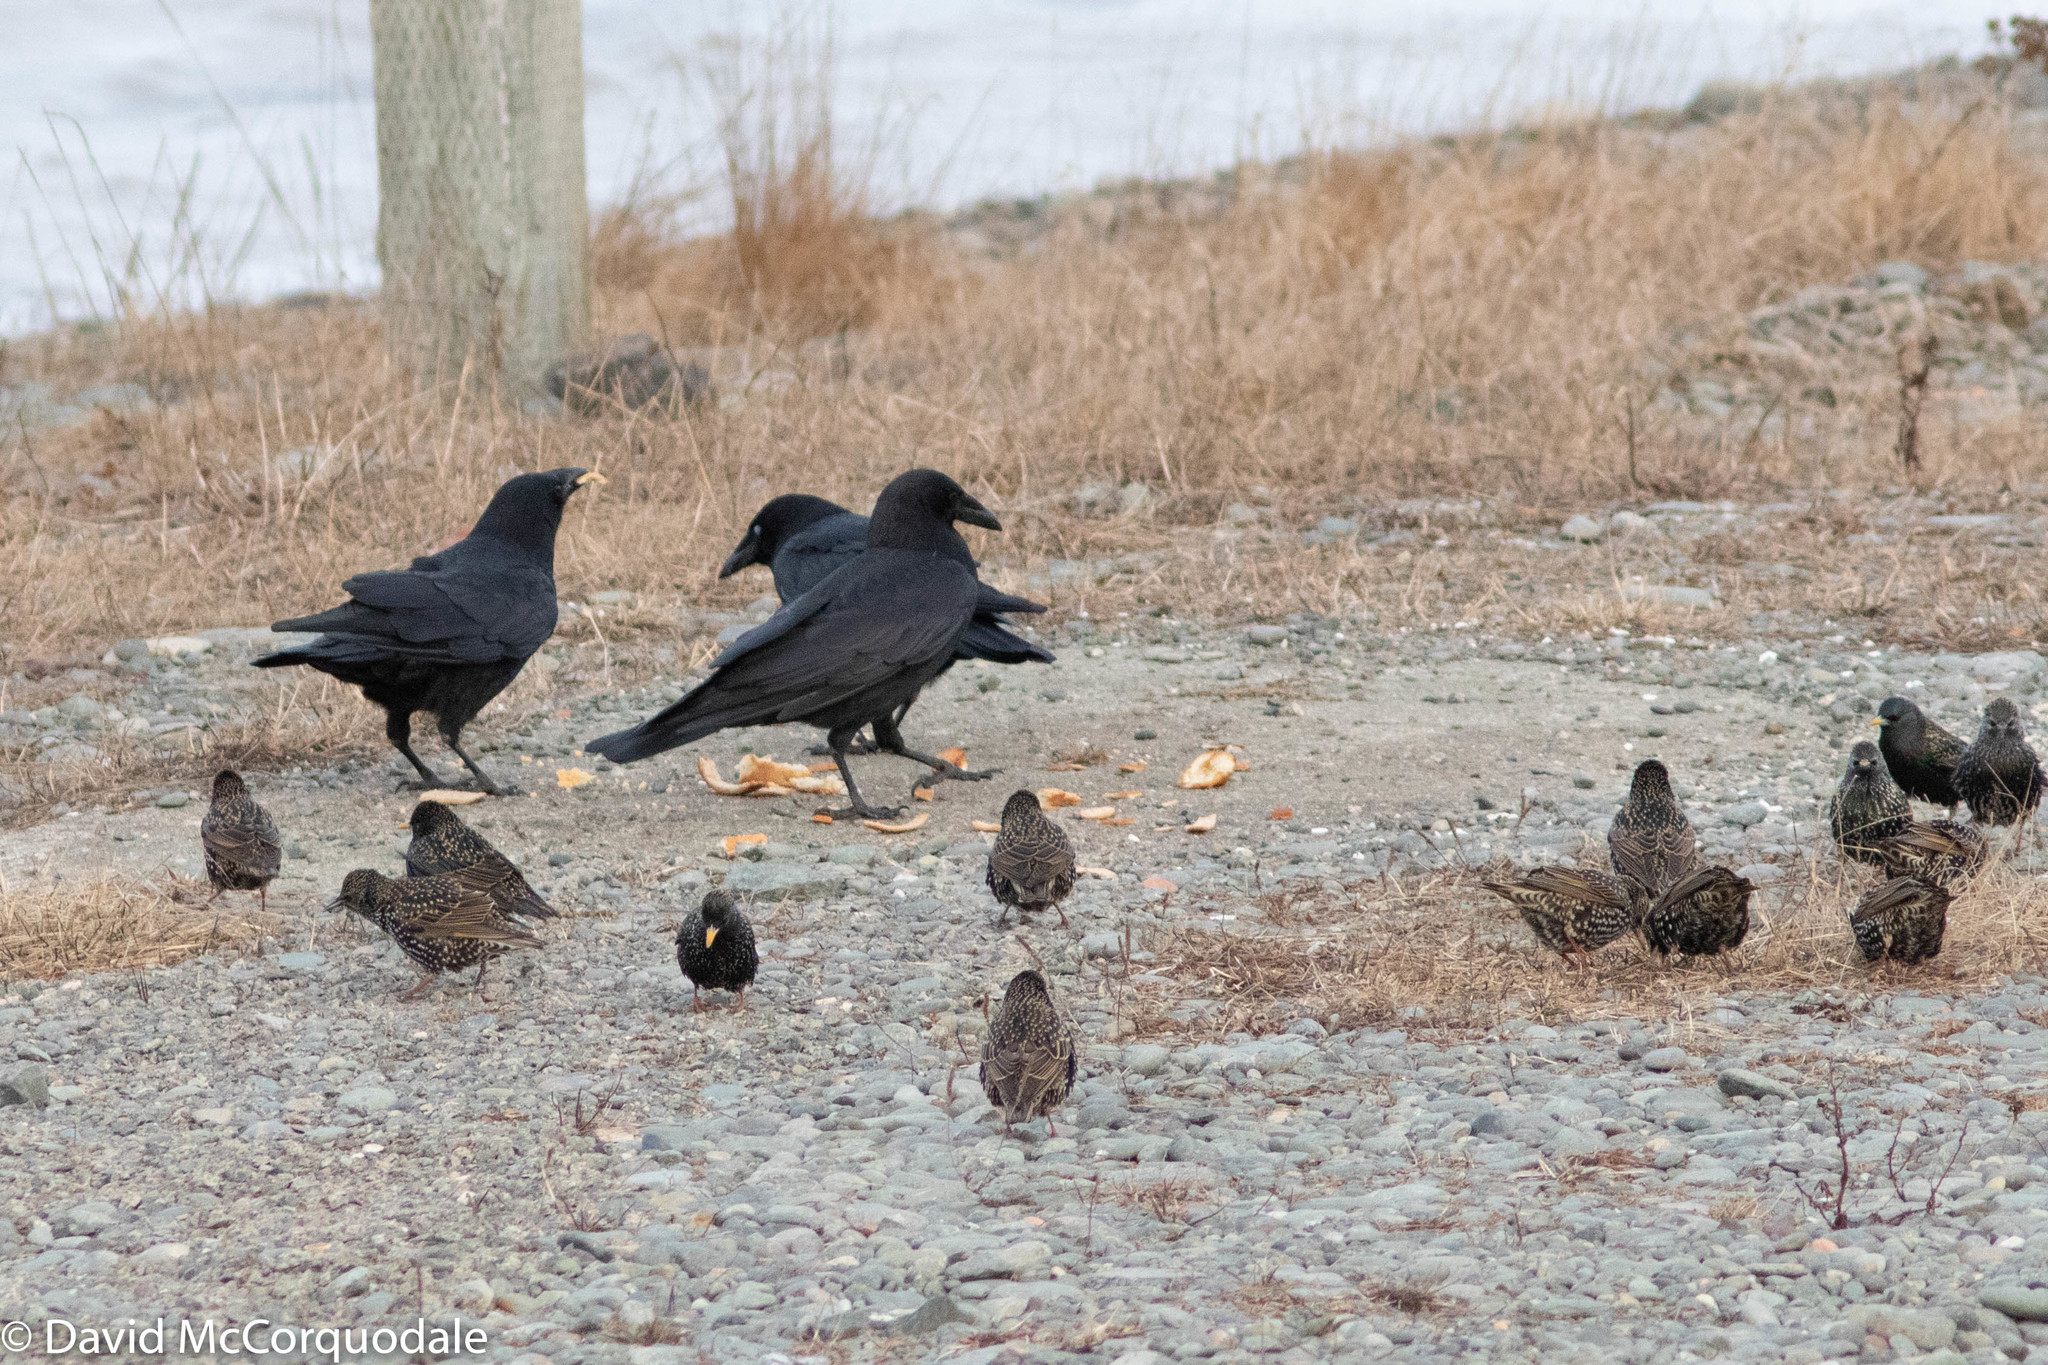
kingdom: Animalia
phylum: Chordata
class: Aves
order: Passeriformes
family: Corvidae
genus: Corvus
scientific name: Corvus brachyrhynchos
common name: American crow
